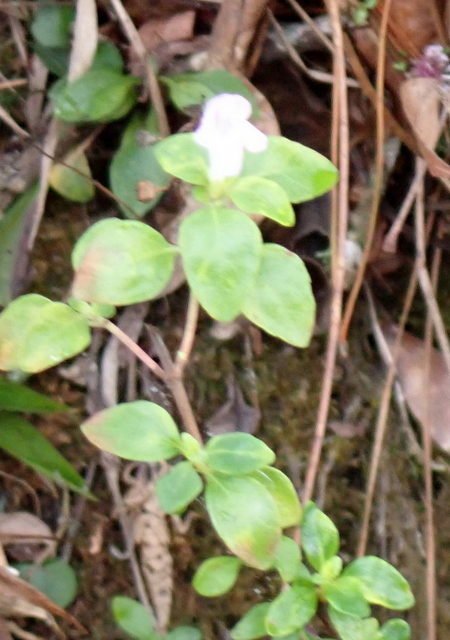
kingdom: Plantae
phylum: Tracheophyta
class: Magnoliopsida
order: Lamiales
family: Lamiaceae
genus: Clinopodium
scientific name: Clinopodium carolinianum
